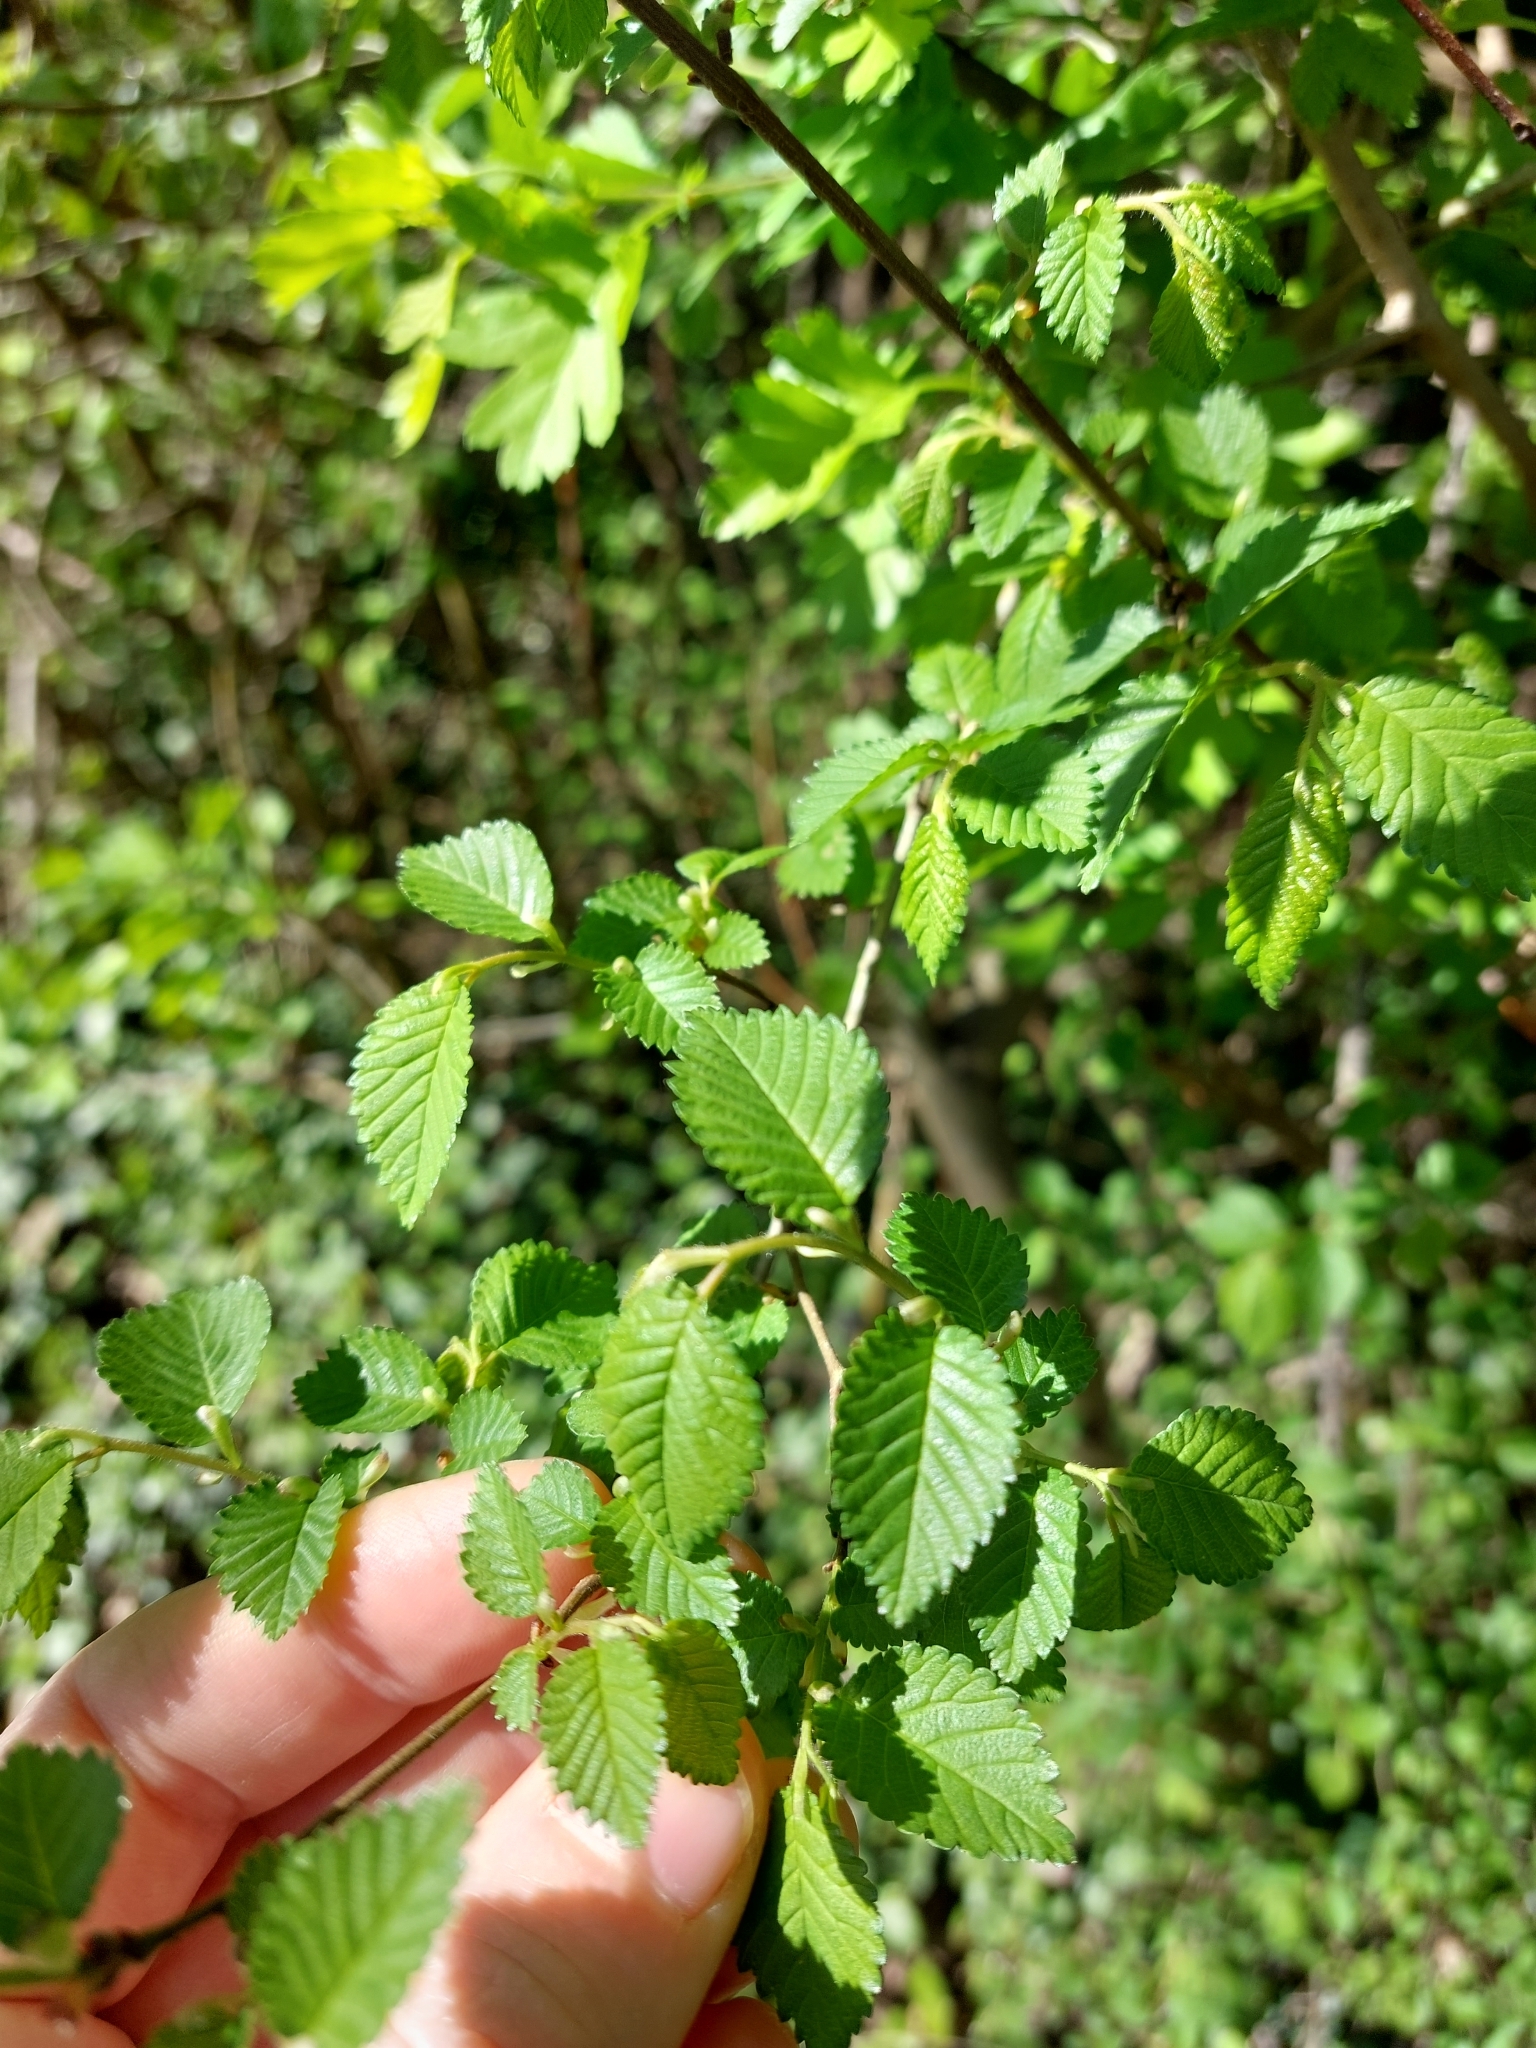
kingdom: Plantae
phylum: Tracheophyta
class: Magnoliopsida
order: Rosales
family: Ulmaceae
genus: Ulmus
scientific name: Ulmus minor
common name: Small-leaved elm
